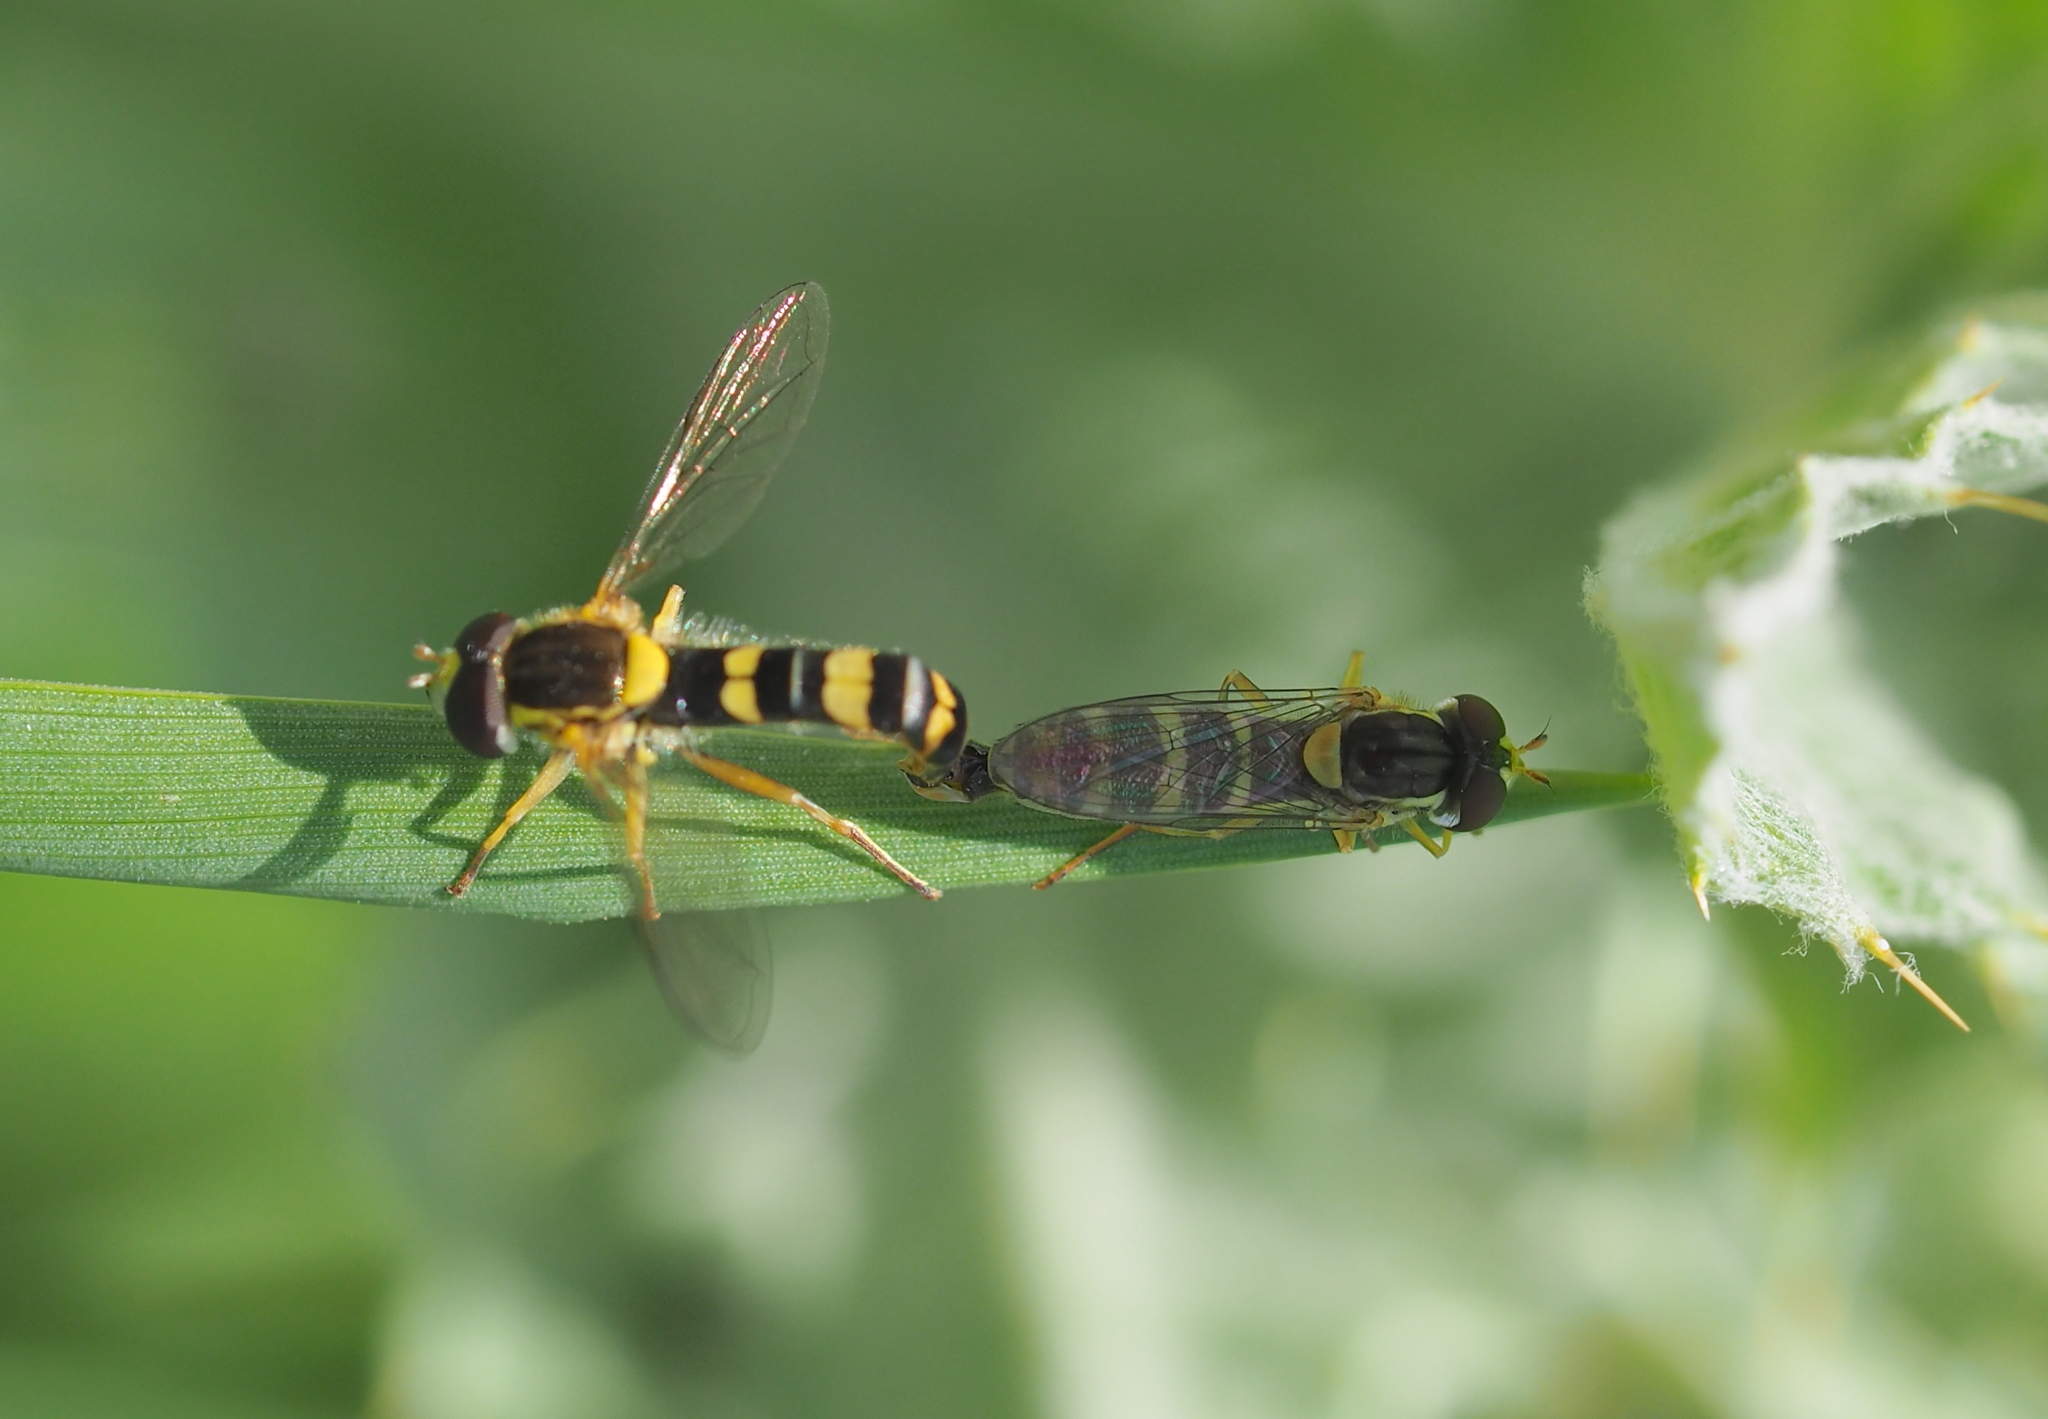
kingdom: Animalia
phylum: Arthropoda
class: Insecta
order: Diptera
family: Syrphidae
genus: Sphaerophoria
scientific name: Sphaerophoria scripta
